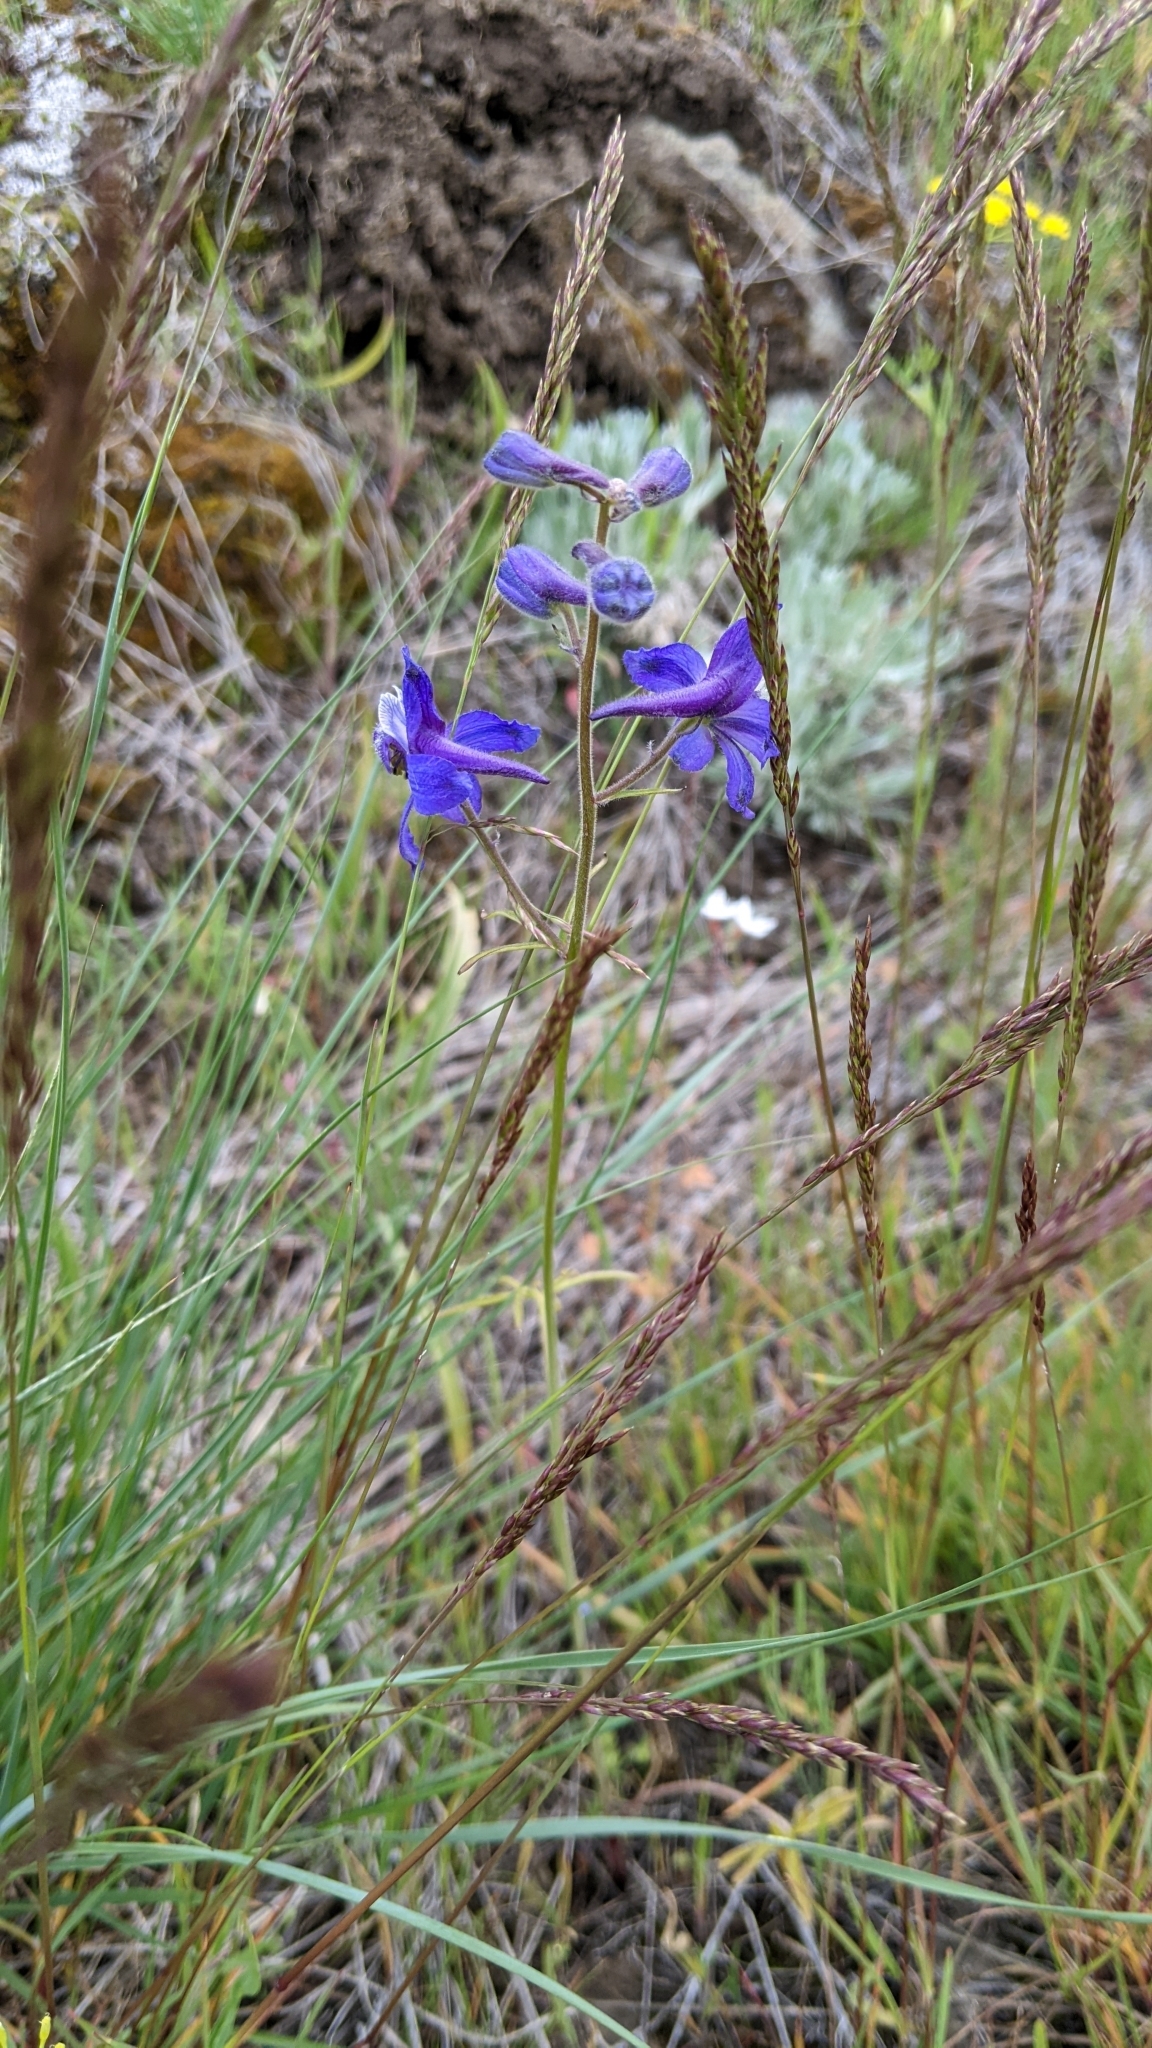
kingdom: Plantae
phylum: Tracheophyta
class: Magnoliopsida
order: Ranunculales
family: Ranunculaceae
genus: Delphinium
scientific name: Delphinium nuttallianum
